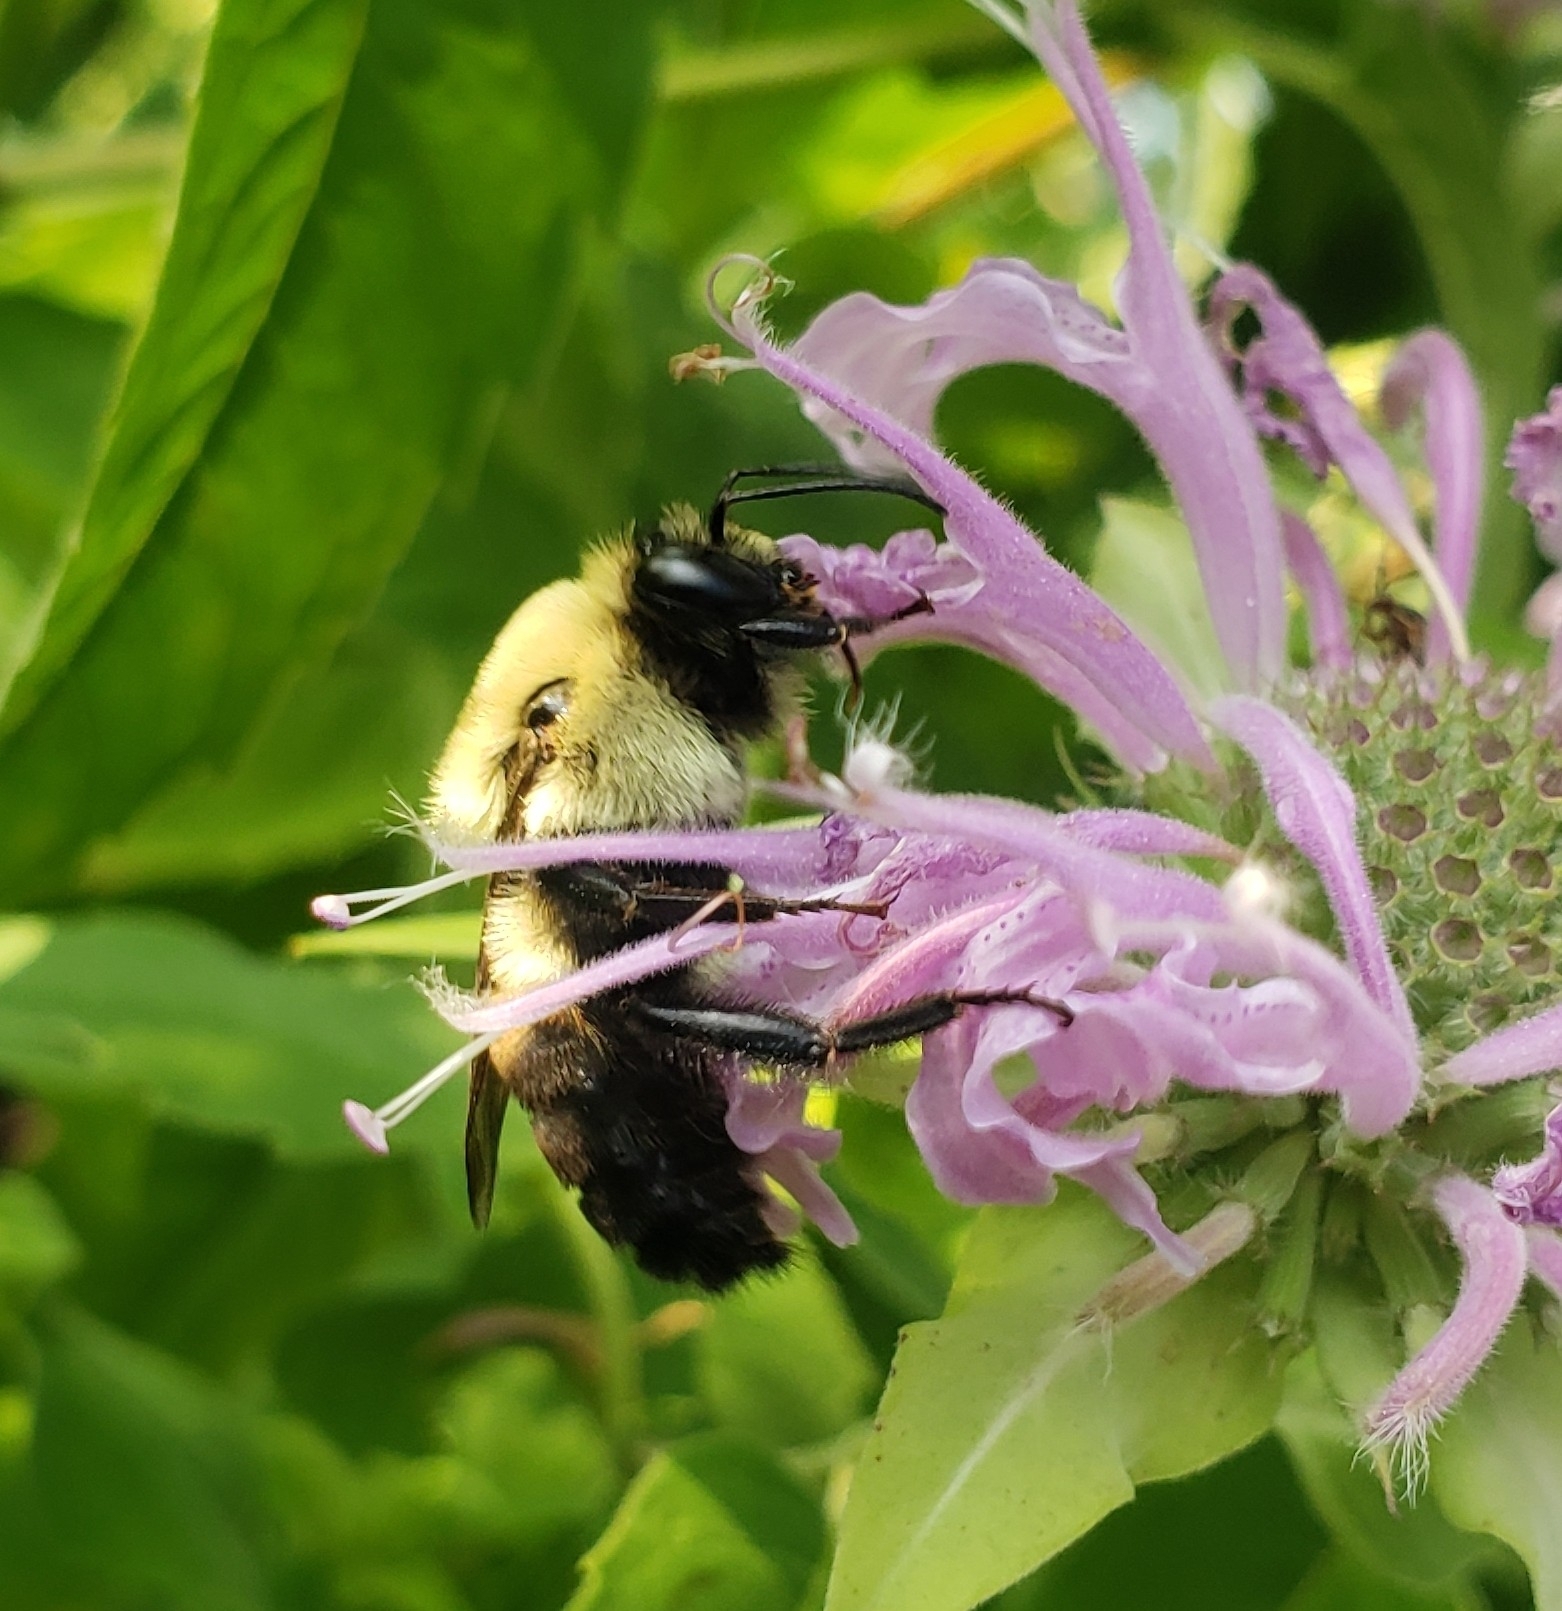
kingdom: Animalia
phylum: Arthropoda
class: Insecta
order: Hymenoptera
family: Apidae
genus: Bombus
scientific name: Bombus griseocollis
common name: Brown-belted bumble bee
